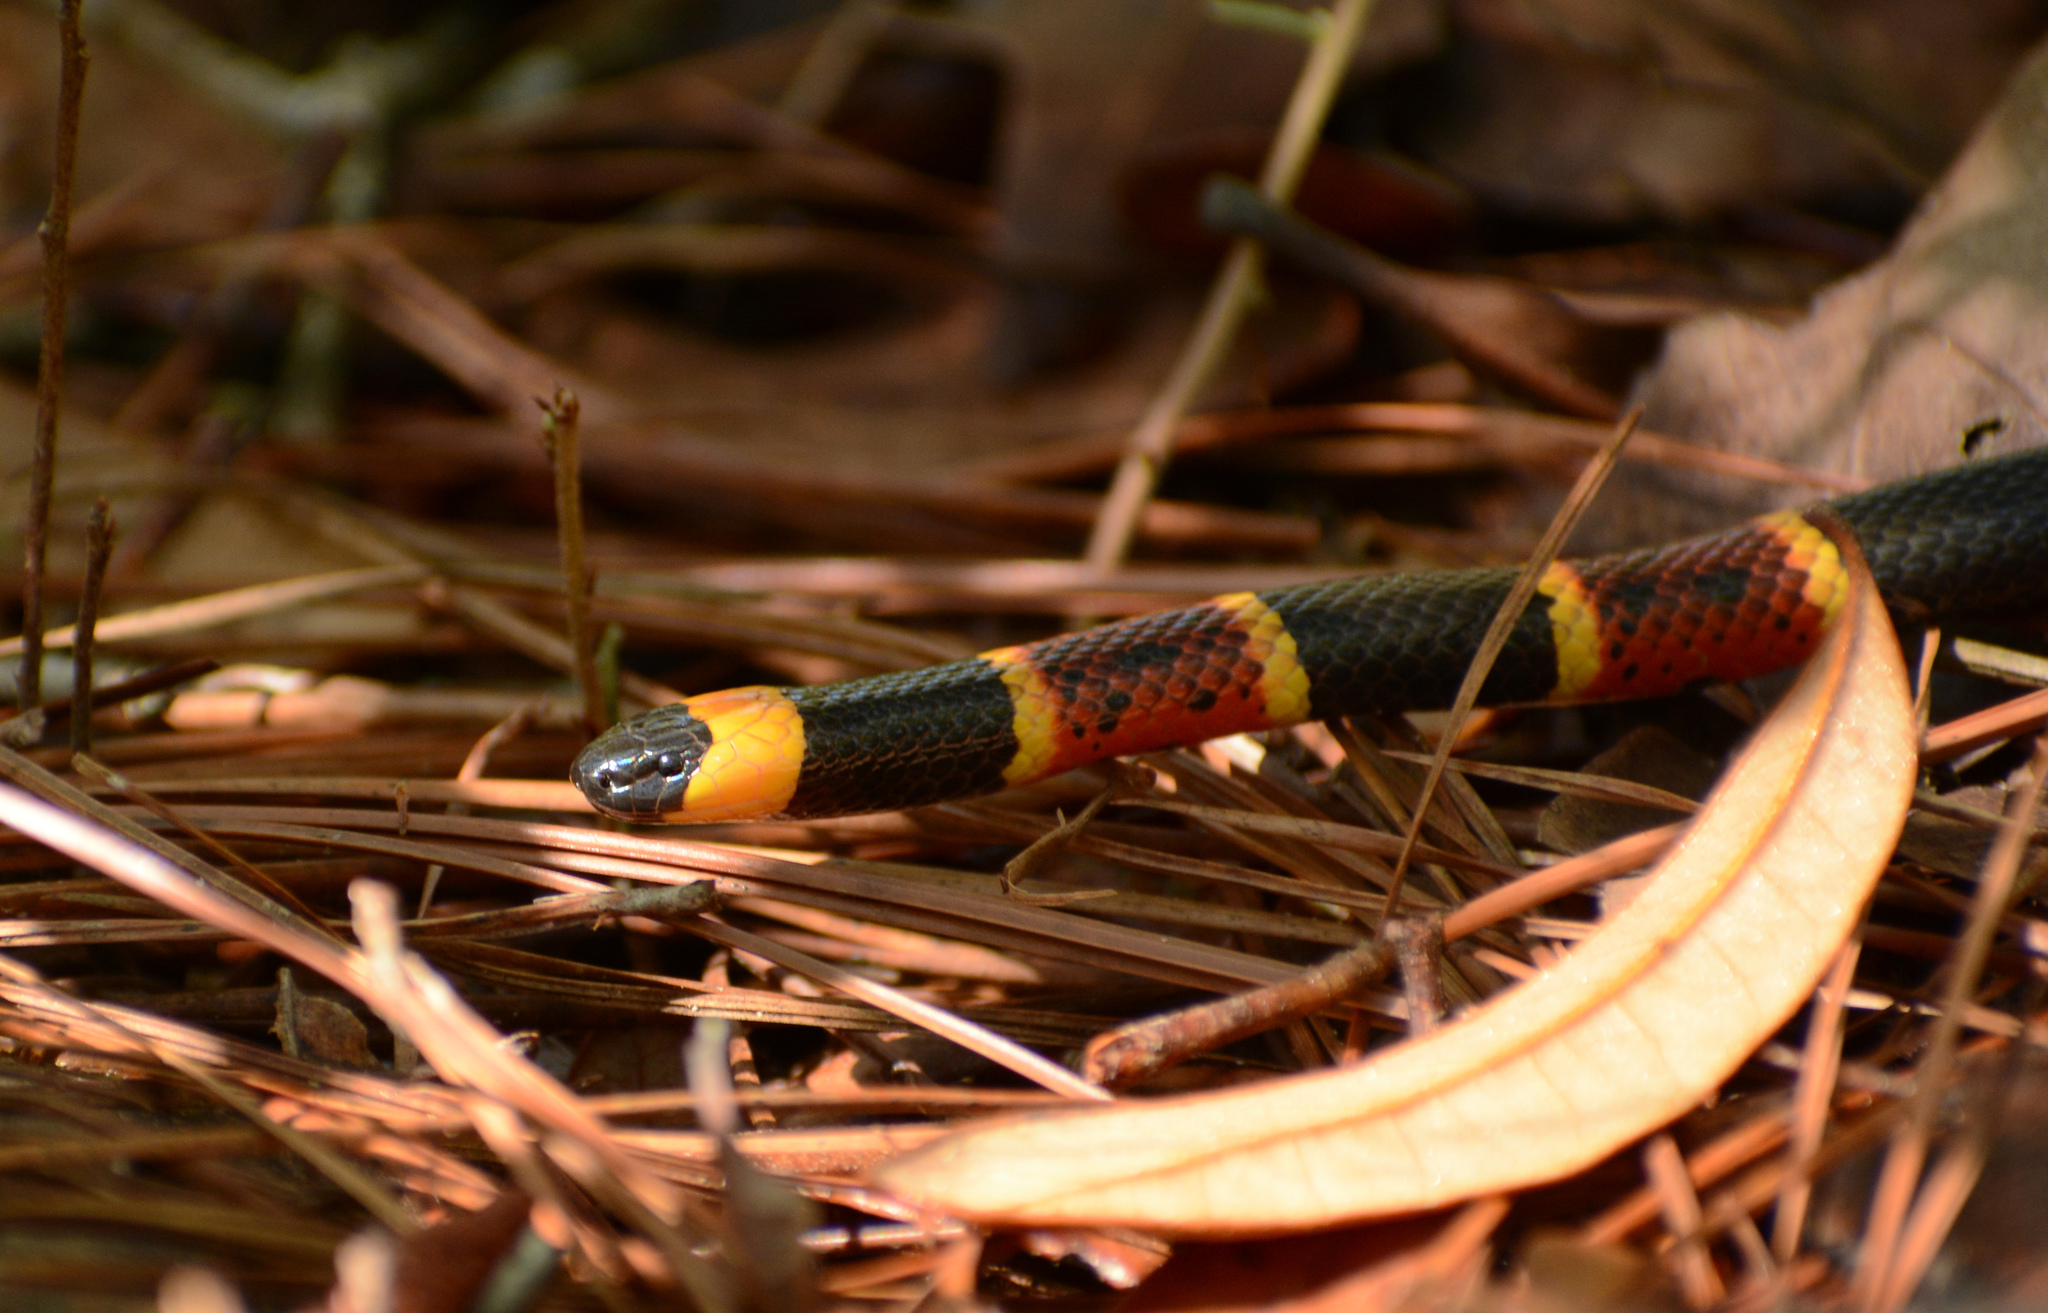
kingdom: Animalia
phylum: Chordata
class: Squamata
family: Elapidae
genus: Micrurus
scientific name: Micrurus fulvius
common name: Eastern coral snake
